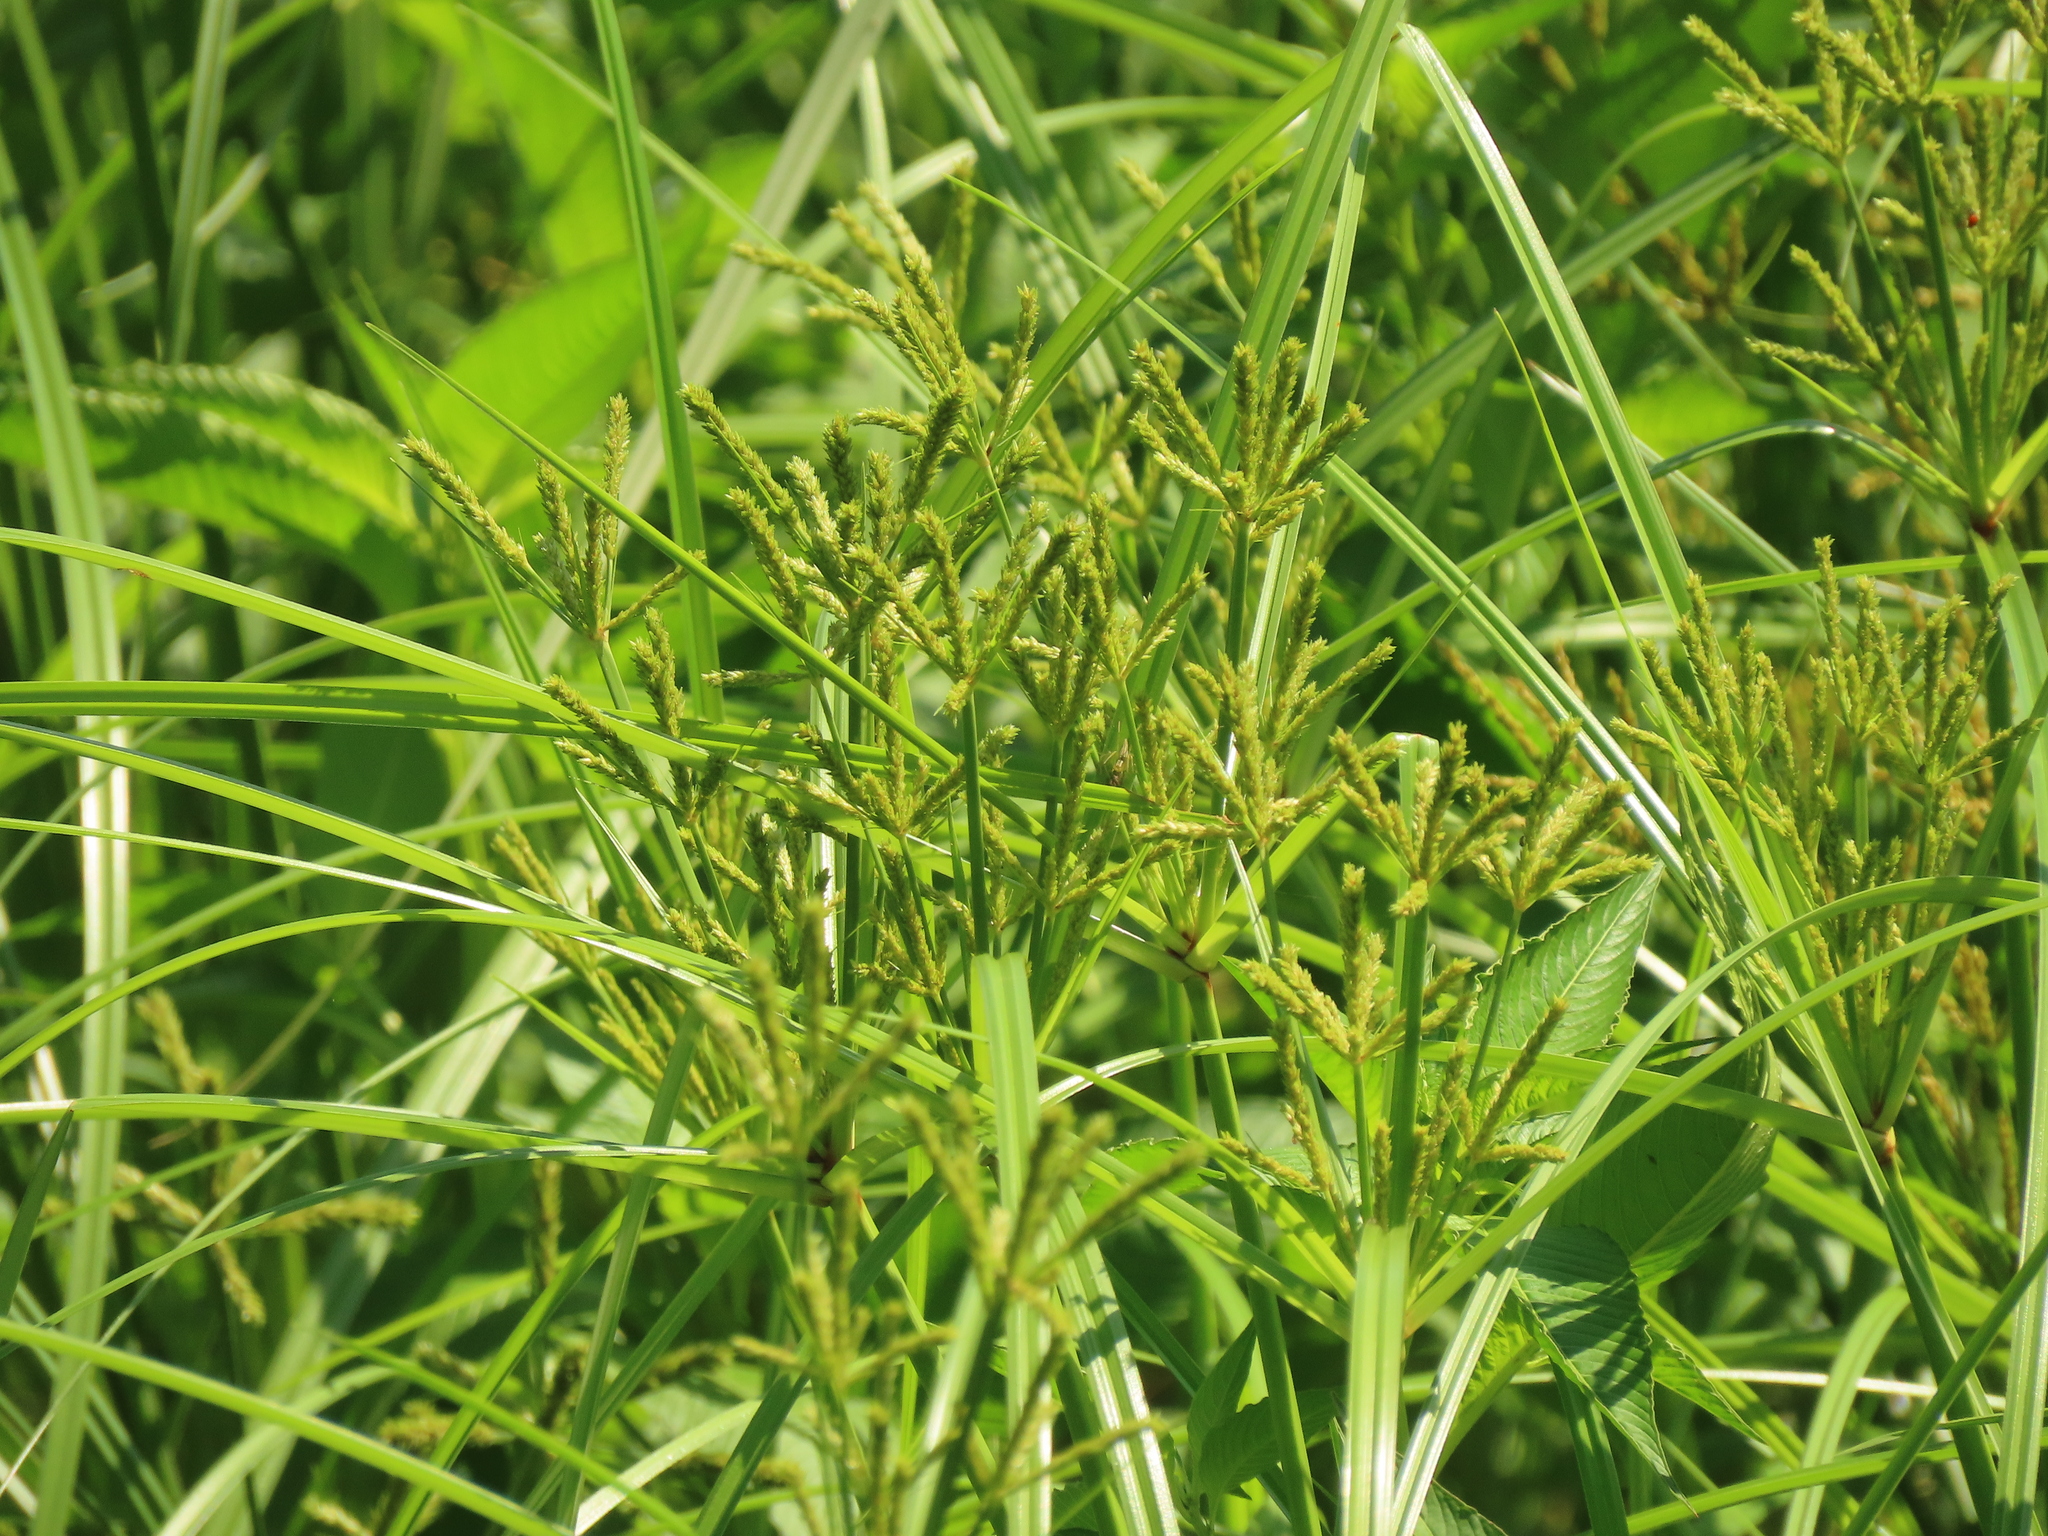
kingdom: Plantae
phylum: Tracheophyta
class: Liliopsida
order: Poales
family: Cyperaceae
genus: Cyperus
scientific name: Cyperus imbricatus
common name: Shingle flatsedge
